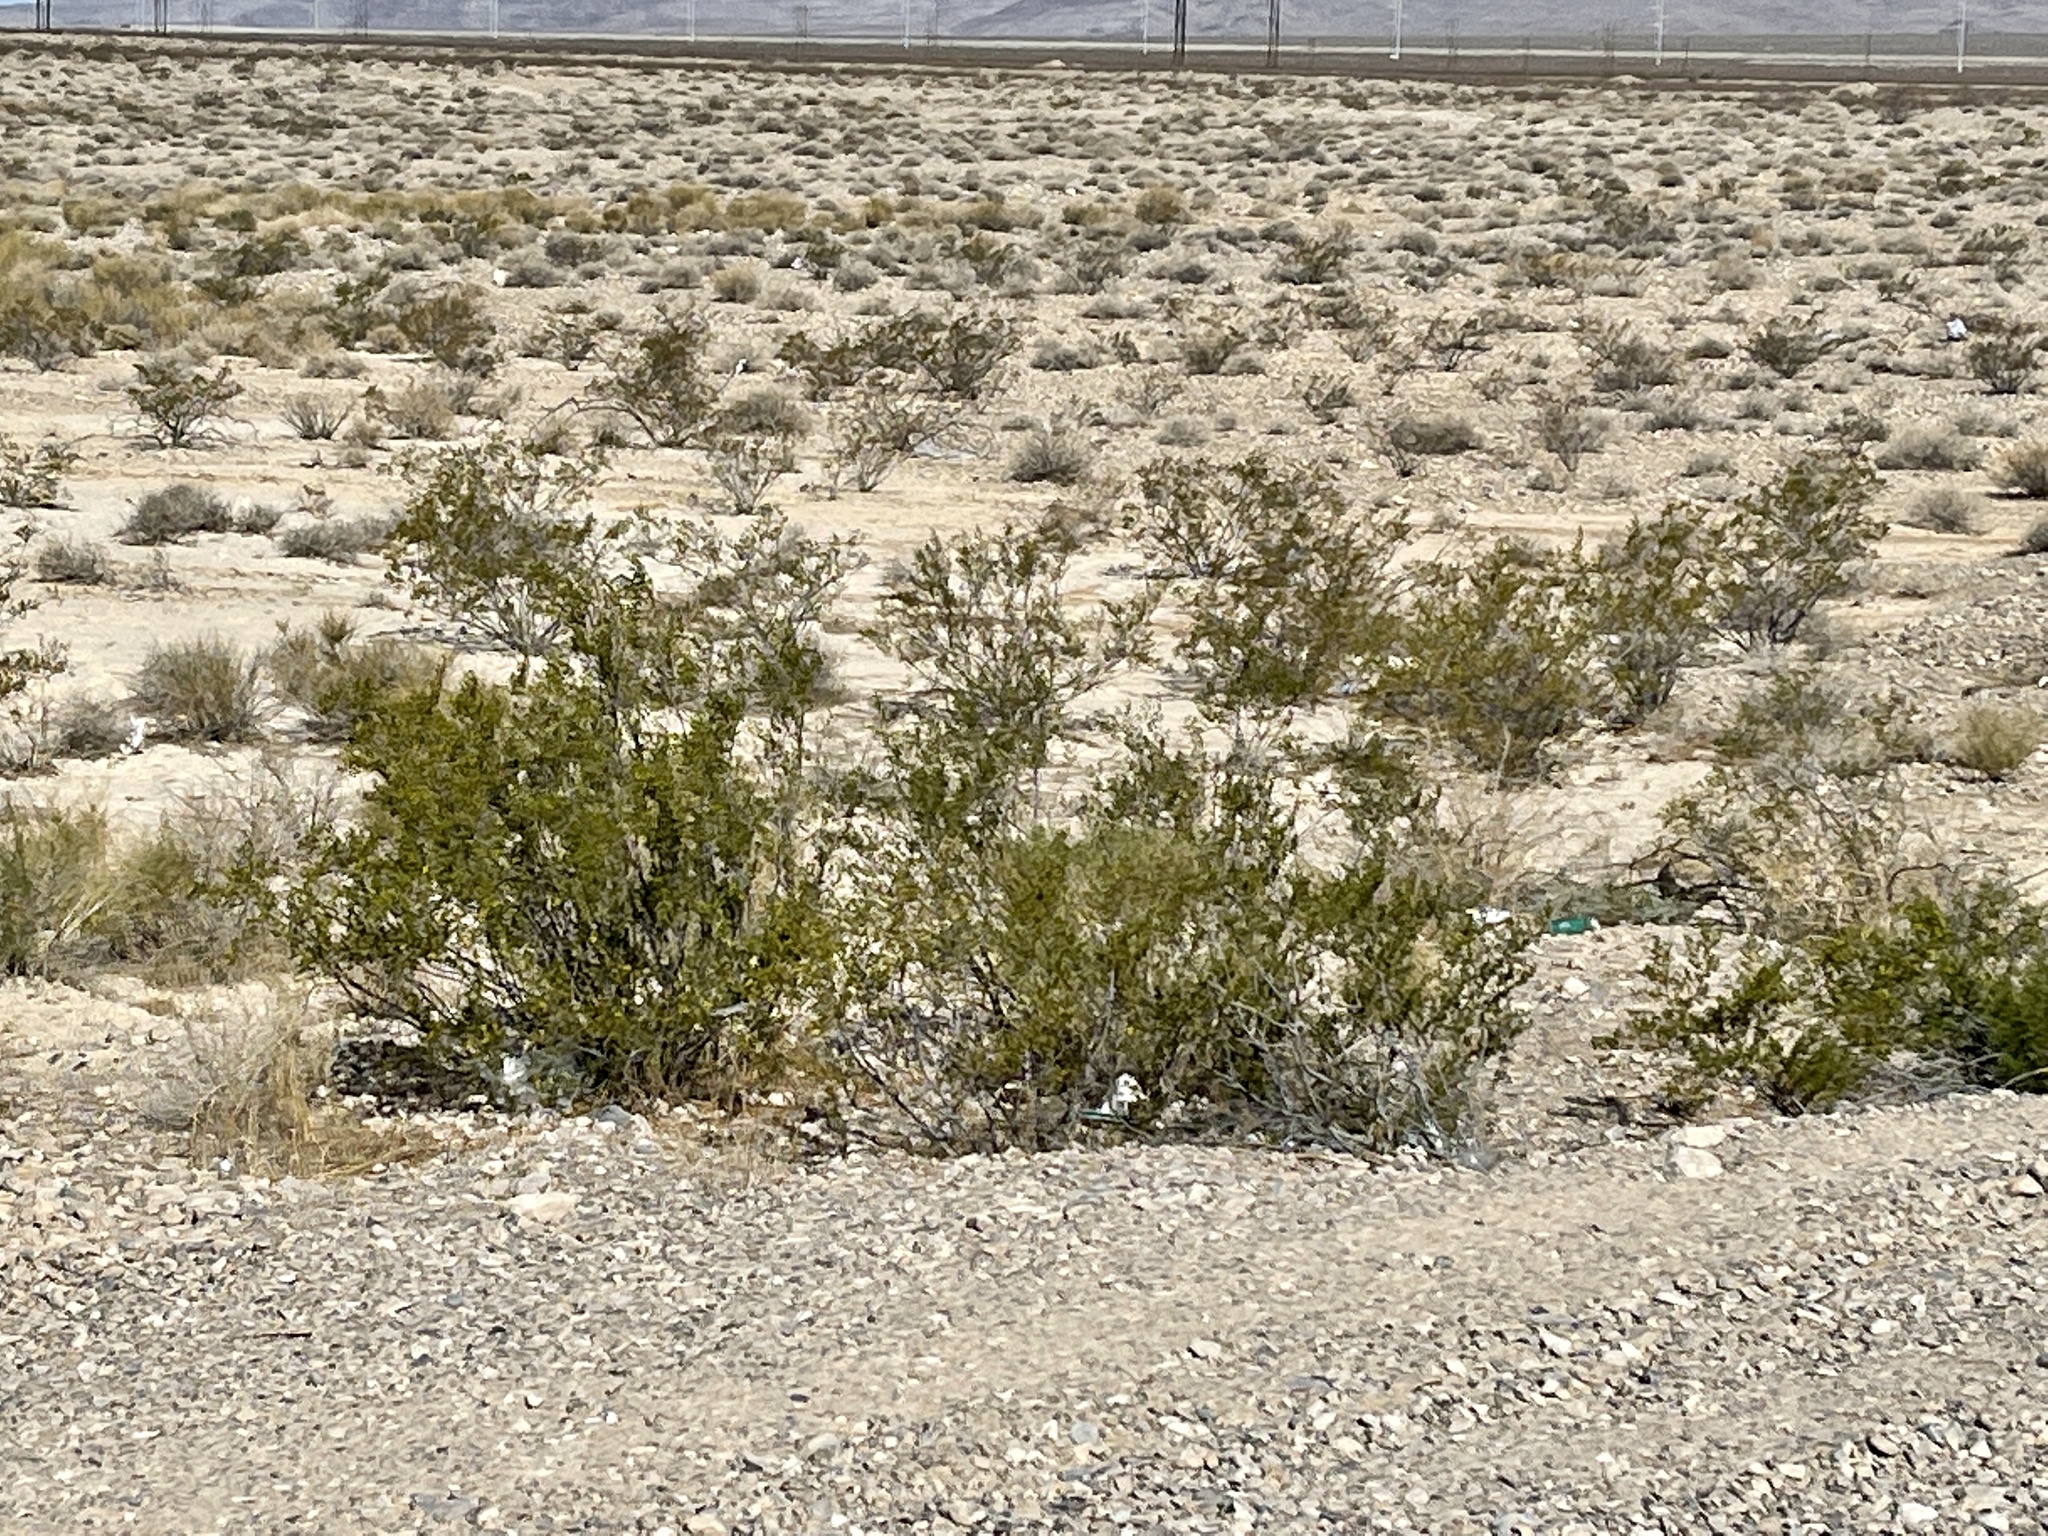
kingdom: Plantae
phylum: Tracheophyta
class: Magnoliopsida
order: Zygophyllales
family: Zygophyllaceae
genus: Larrea
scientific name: Larrea tridentata
